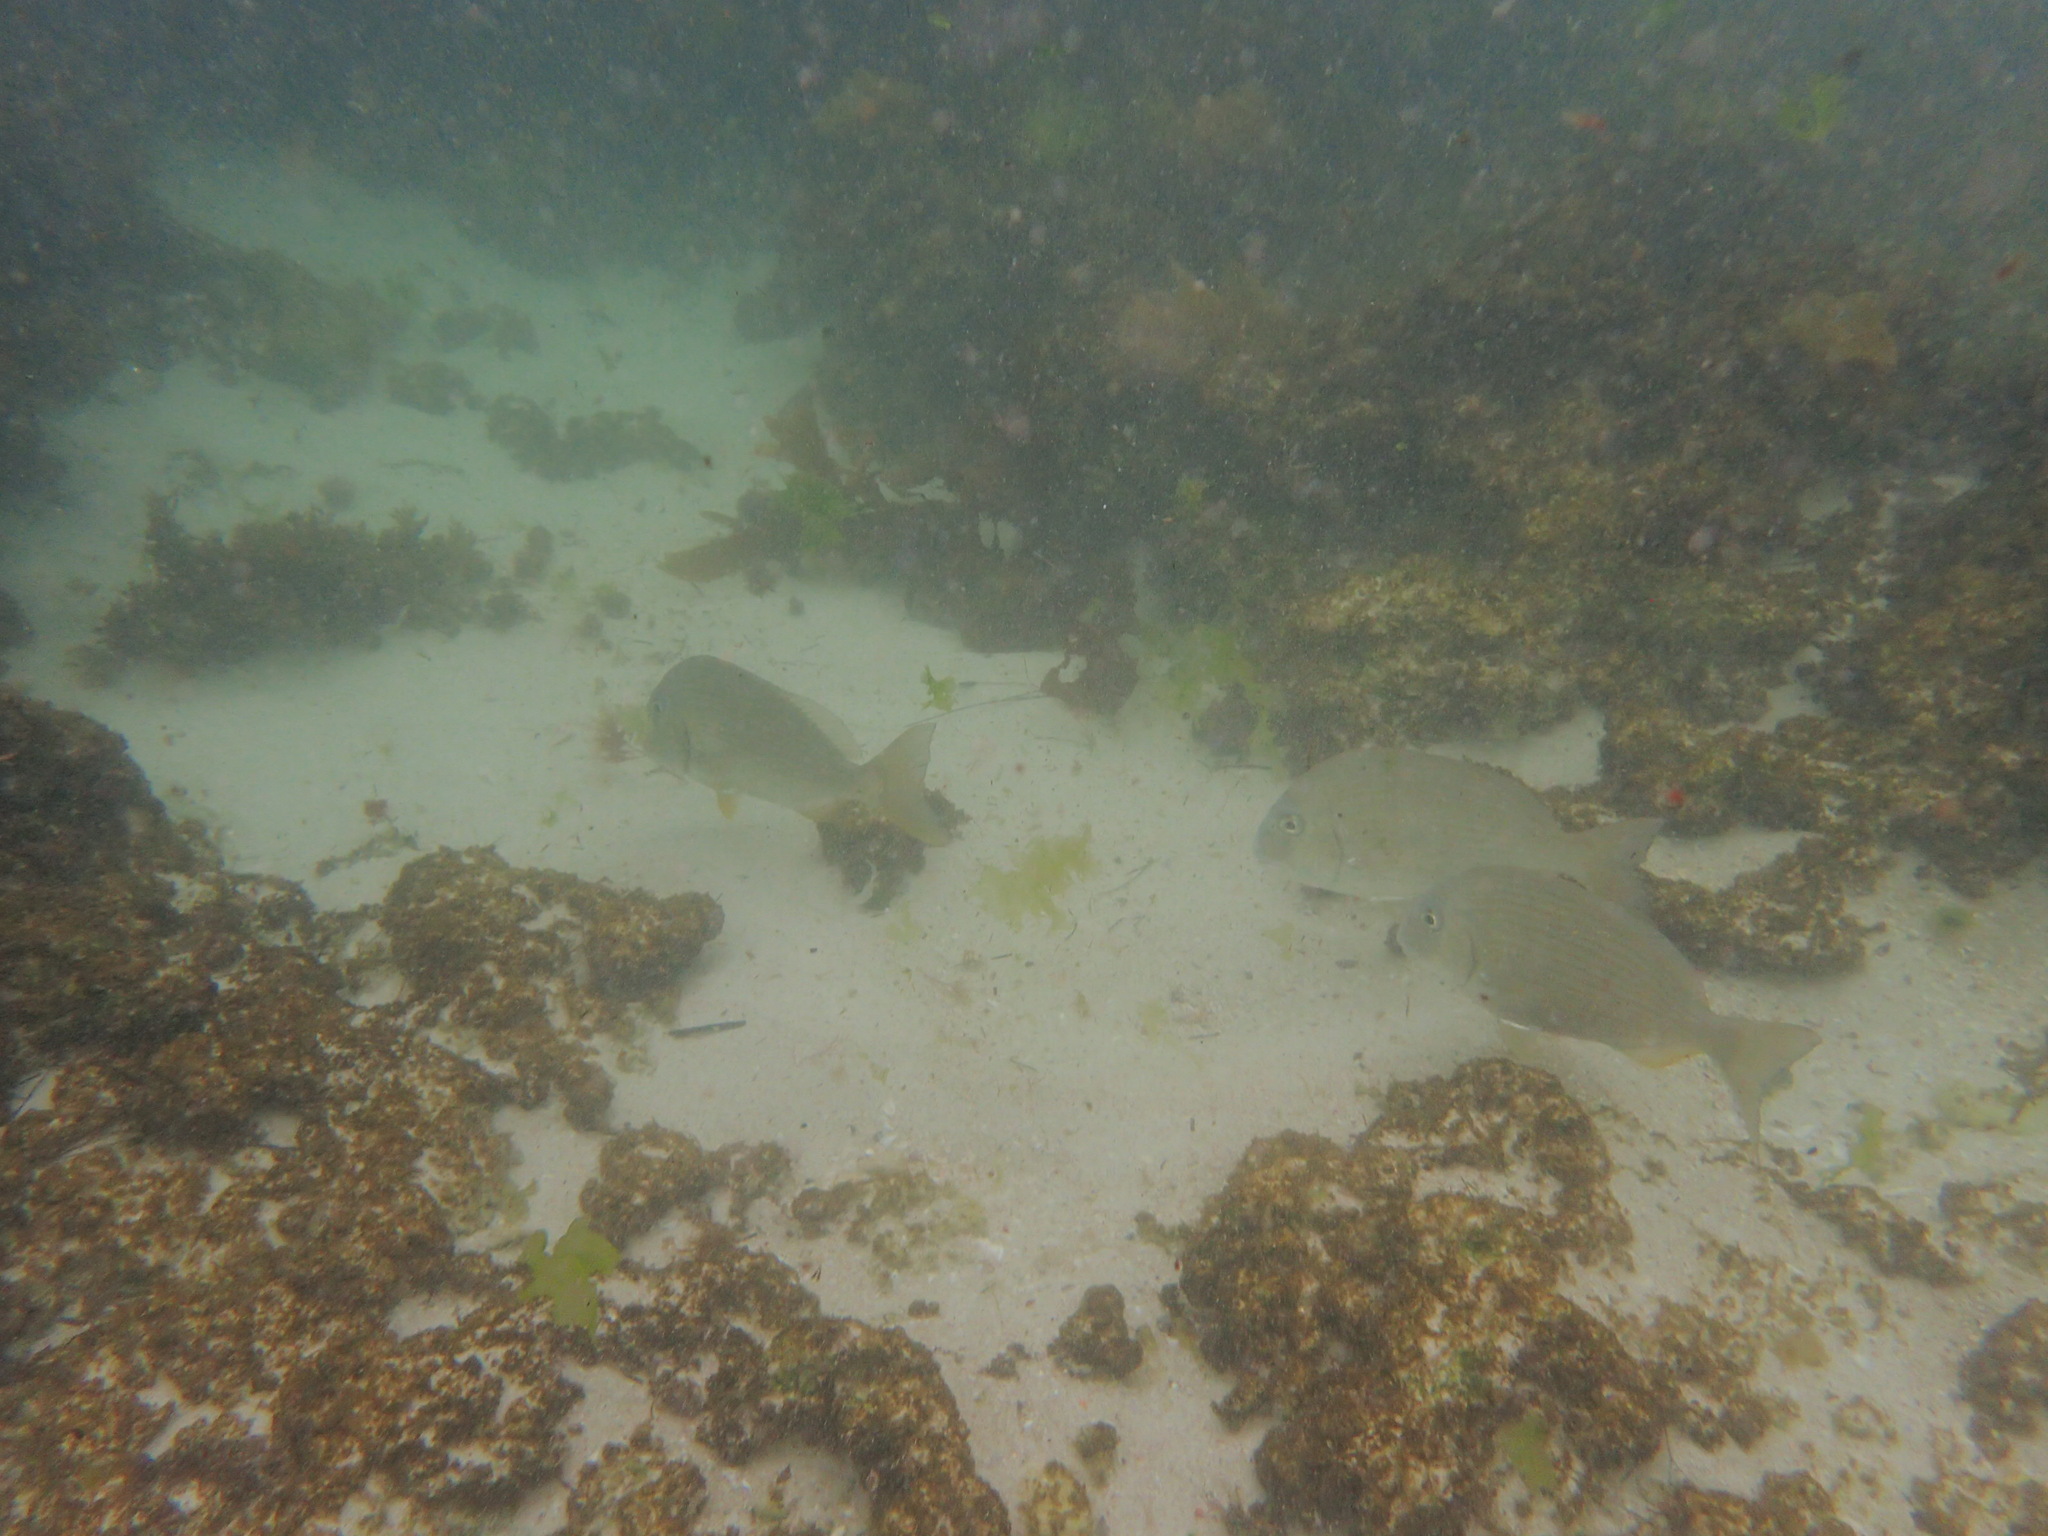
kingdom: Animalia
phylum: Chordata
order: Perciformes
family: Sparidae
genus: Rhabdosargus
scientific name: Rhabdosargus sarba
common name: Goldlined seabream
